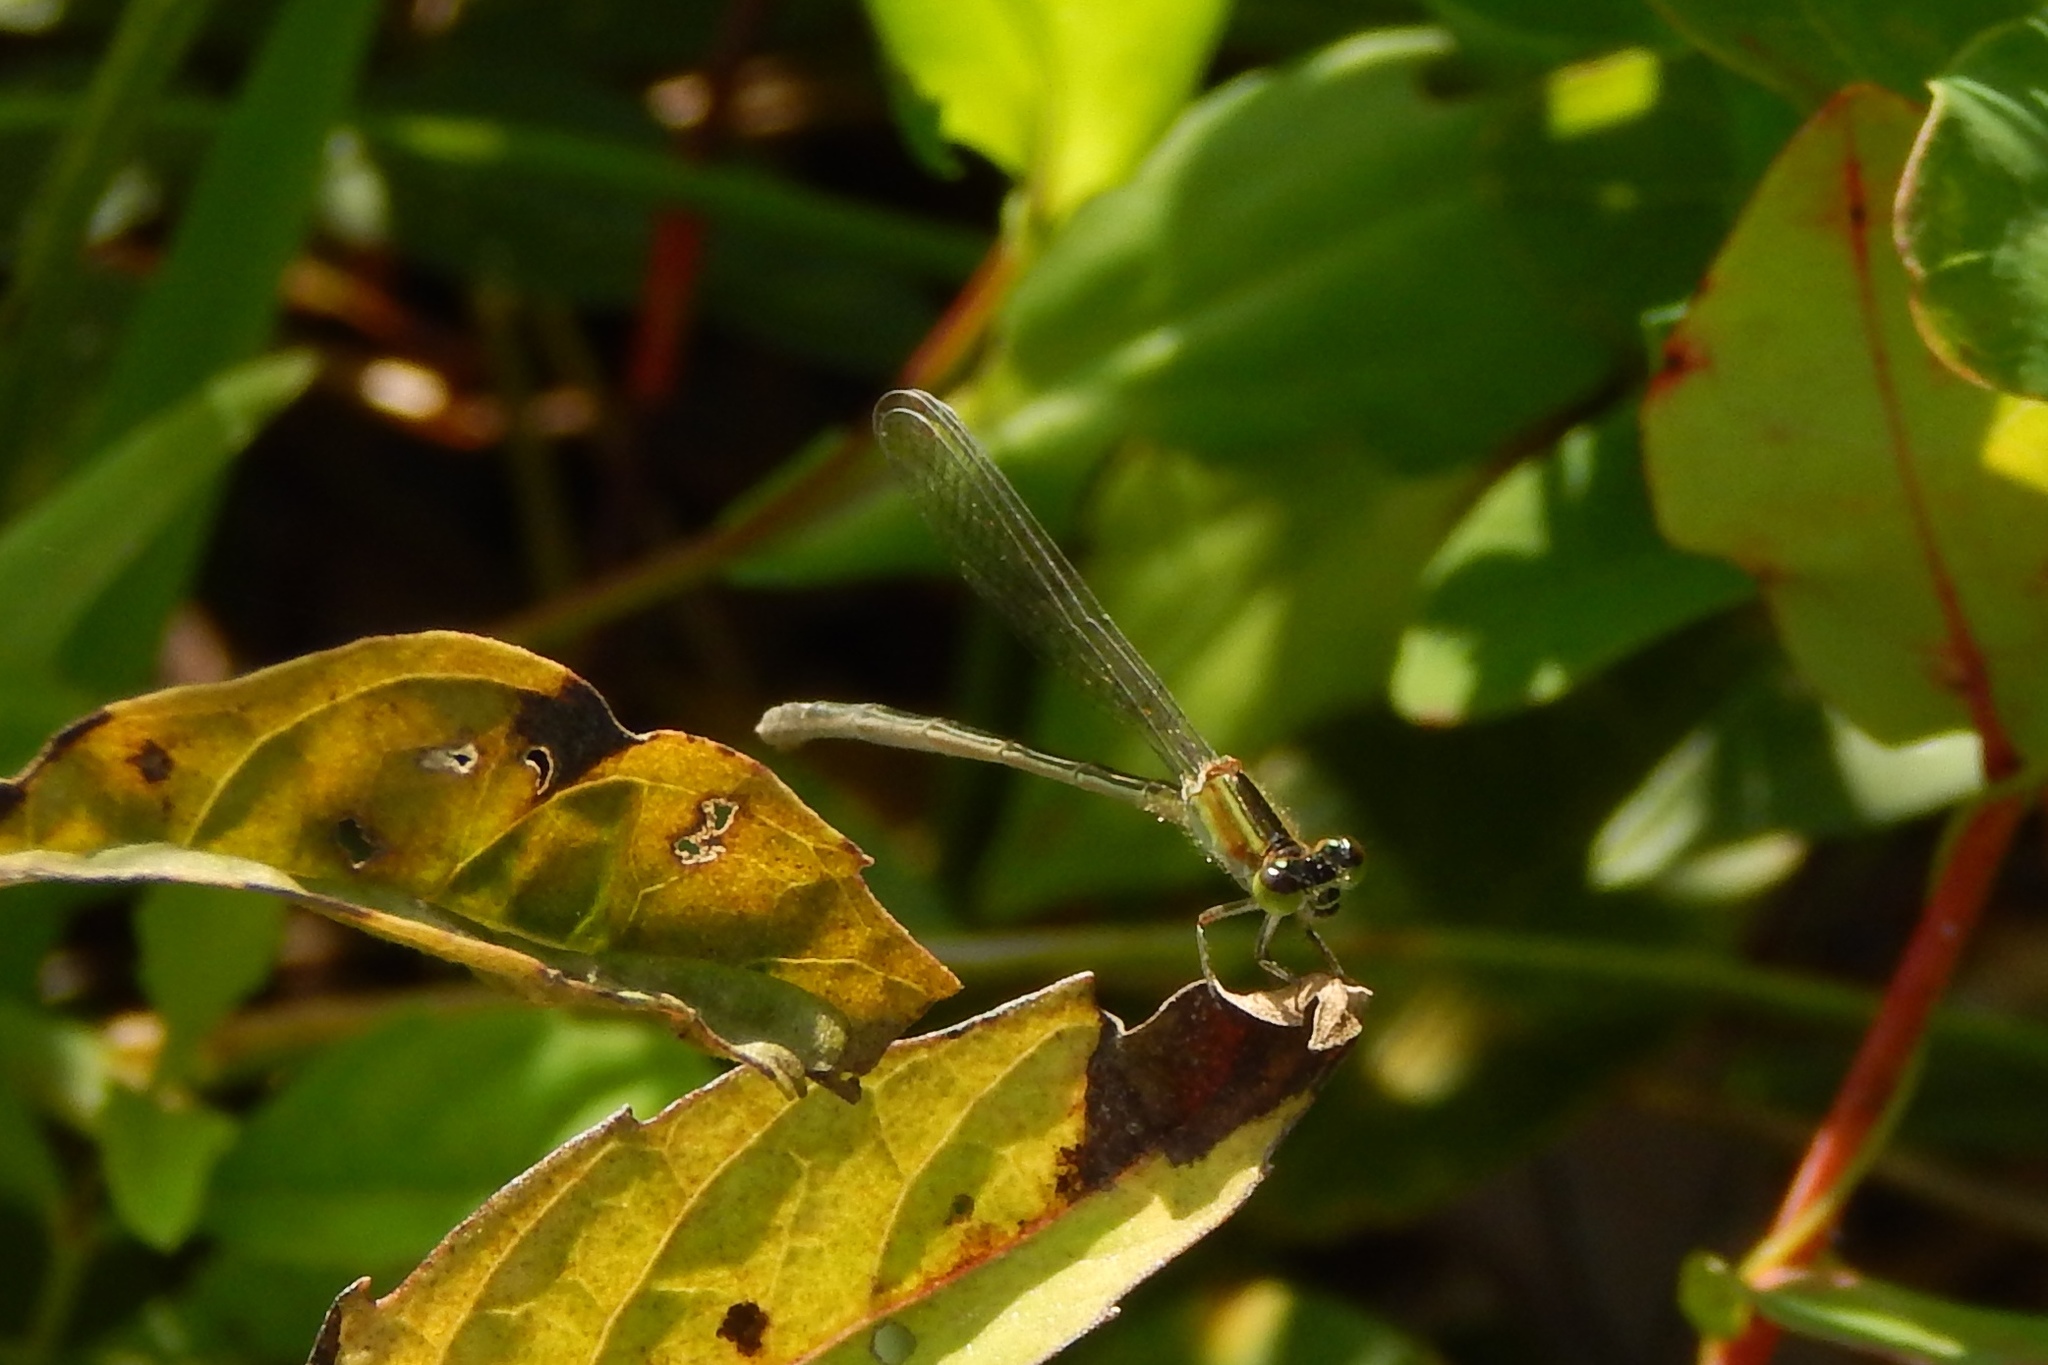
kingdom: Animalia
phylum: Arthropoda
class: Insecta
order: Odonata
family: Coenagrionidae
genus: Ischnura
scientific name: Ischnura ramburii
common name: Rambur's forktail
